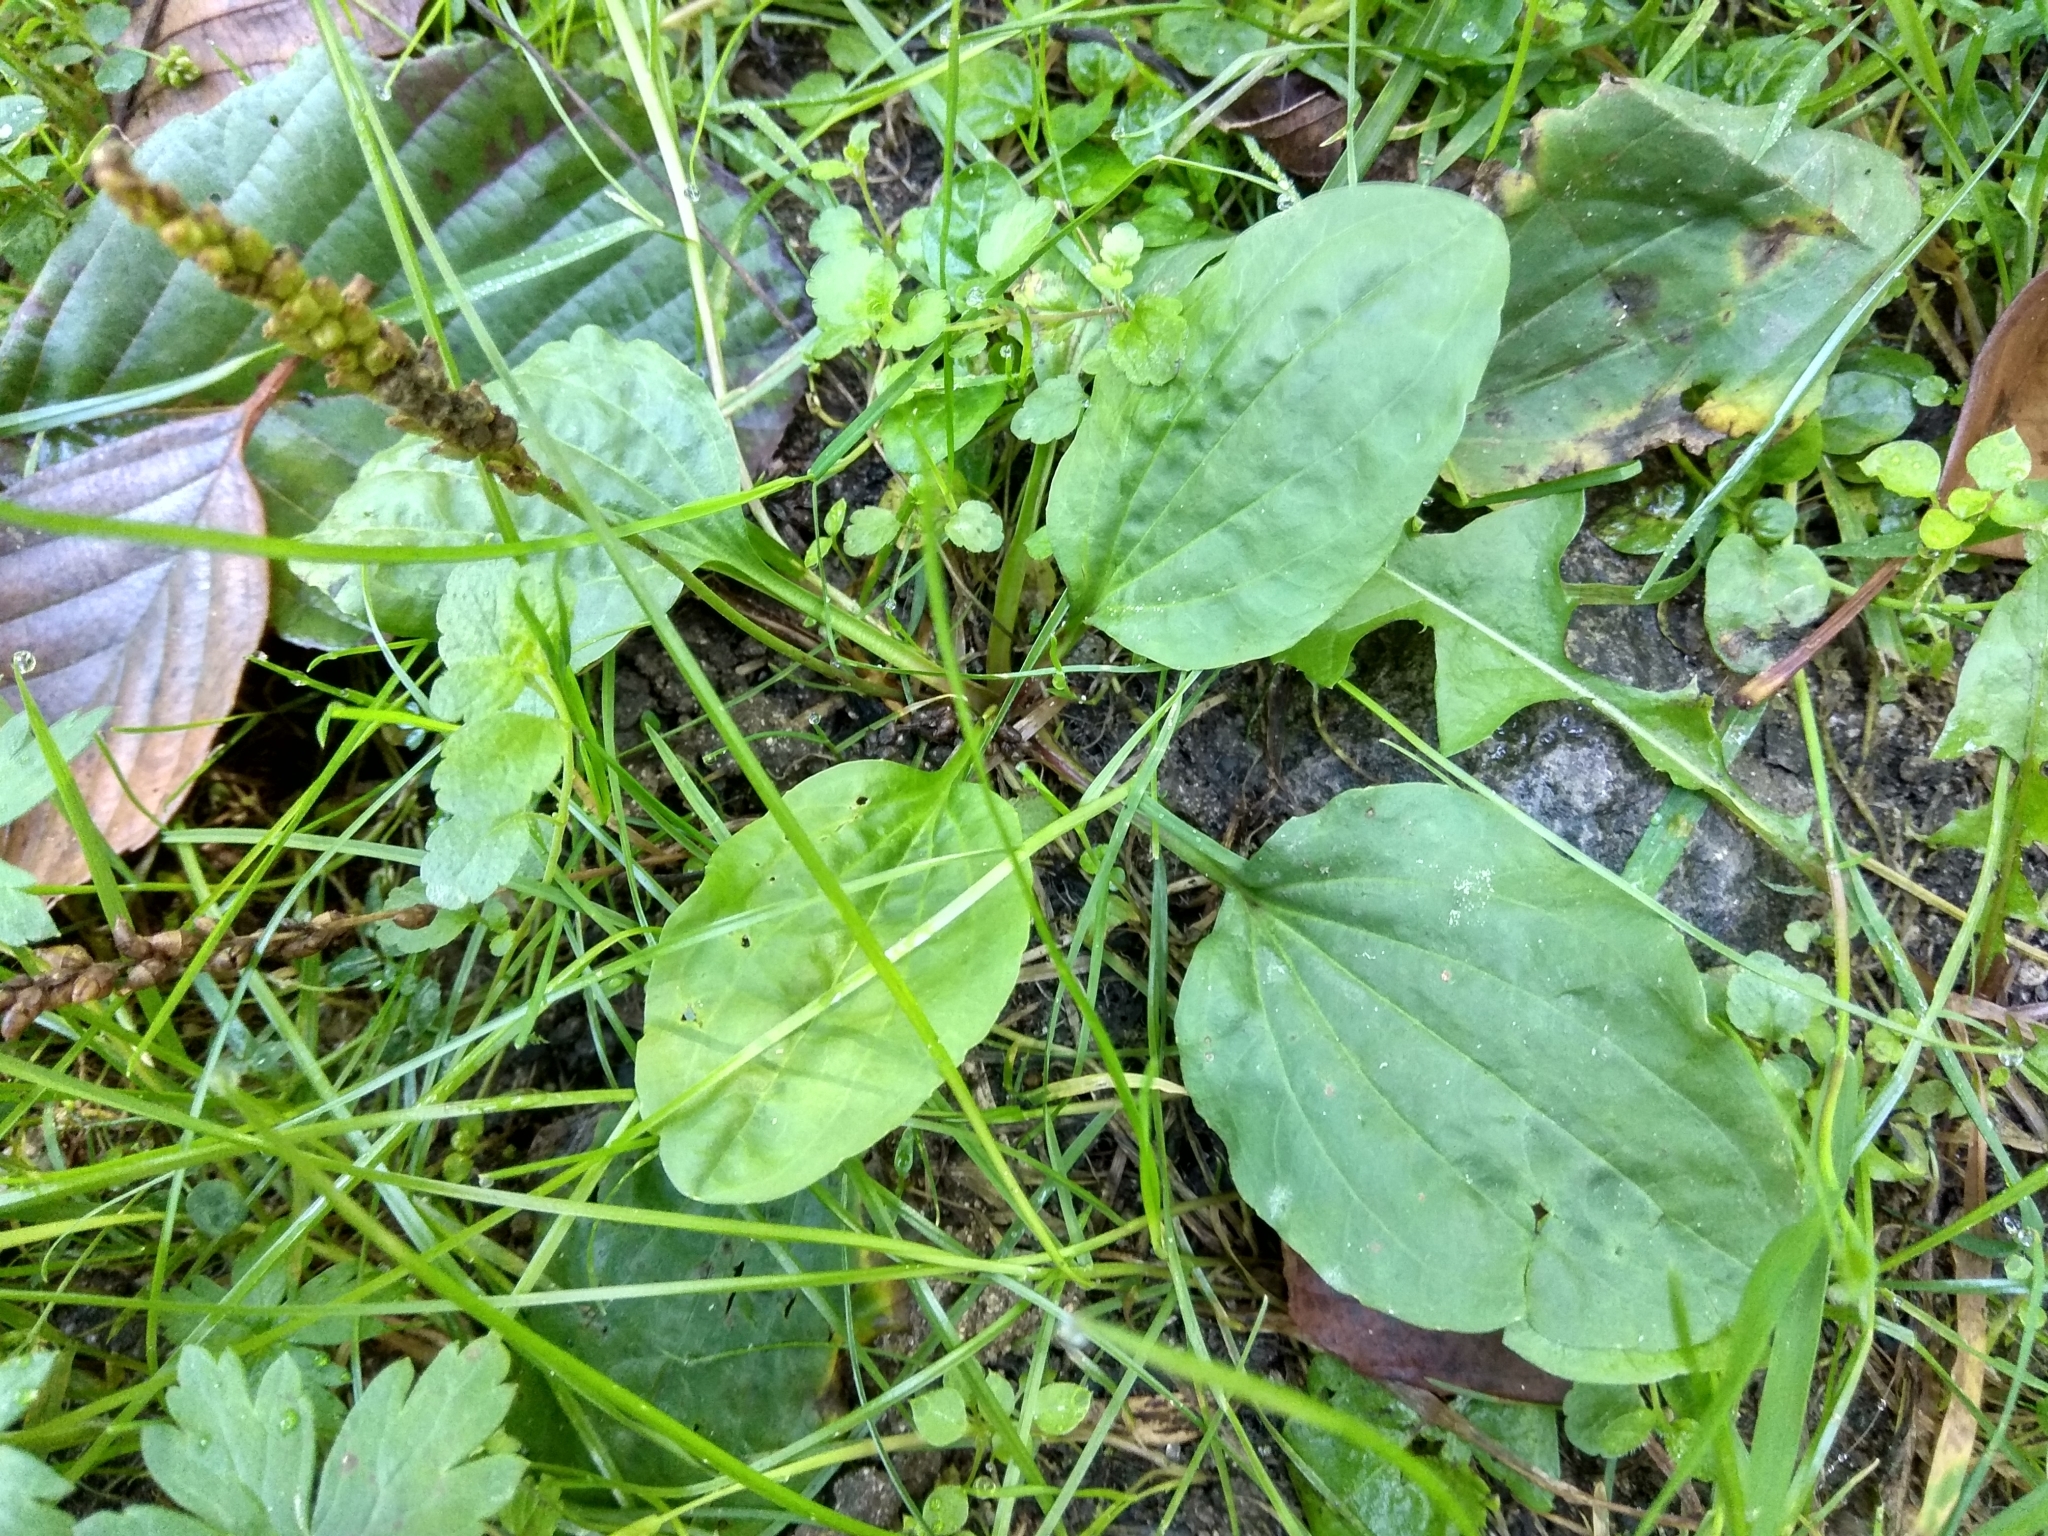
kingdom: Plantae
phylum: Tracheophyta
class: Magnoliopsida
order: Lamiales
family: Plantaginaceae
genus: Plantago
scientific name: Plantago major
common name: Common plantain
